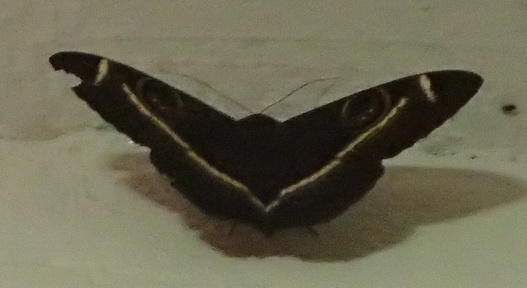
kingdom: Animalia
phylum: Arthropoda
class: Insecta
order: Lepidoptera
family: Erebidae
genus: Cyligramma
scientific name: Cyligramma latona
